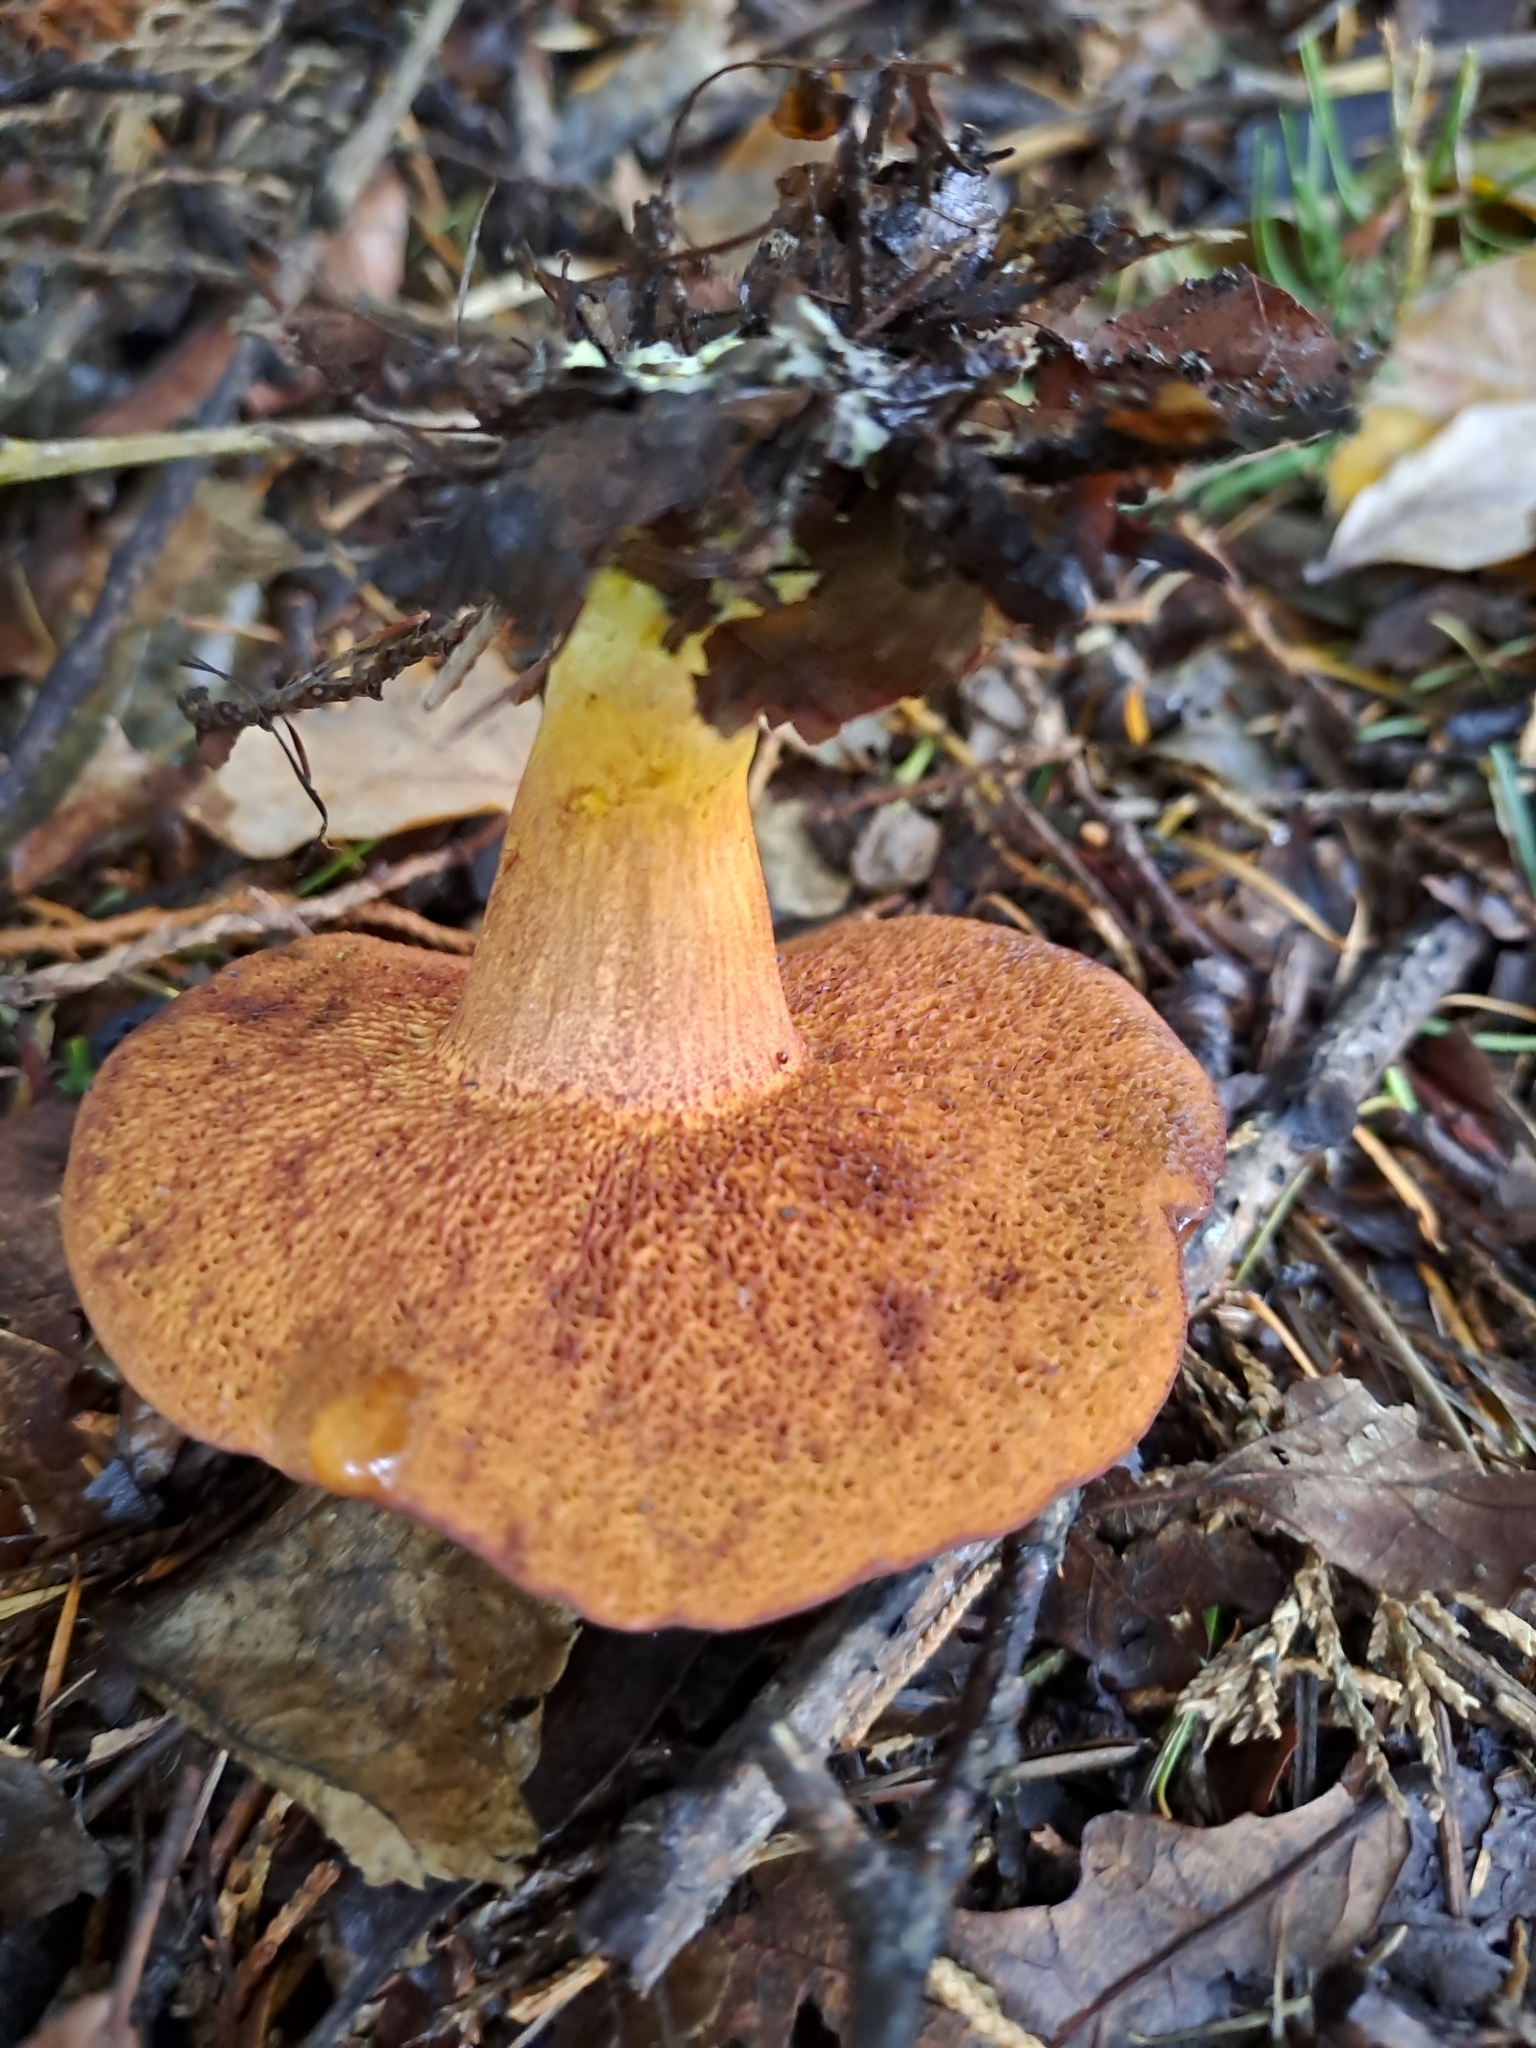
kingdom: Fungi
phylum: Basidiomycota
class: Agaricomycetes
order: Boletales
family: Boletaceae
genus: Chalciporus
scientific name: Chalciporus piperatus
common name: Peppery bolete
